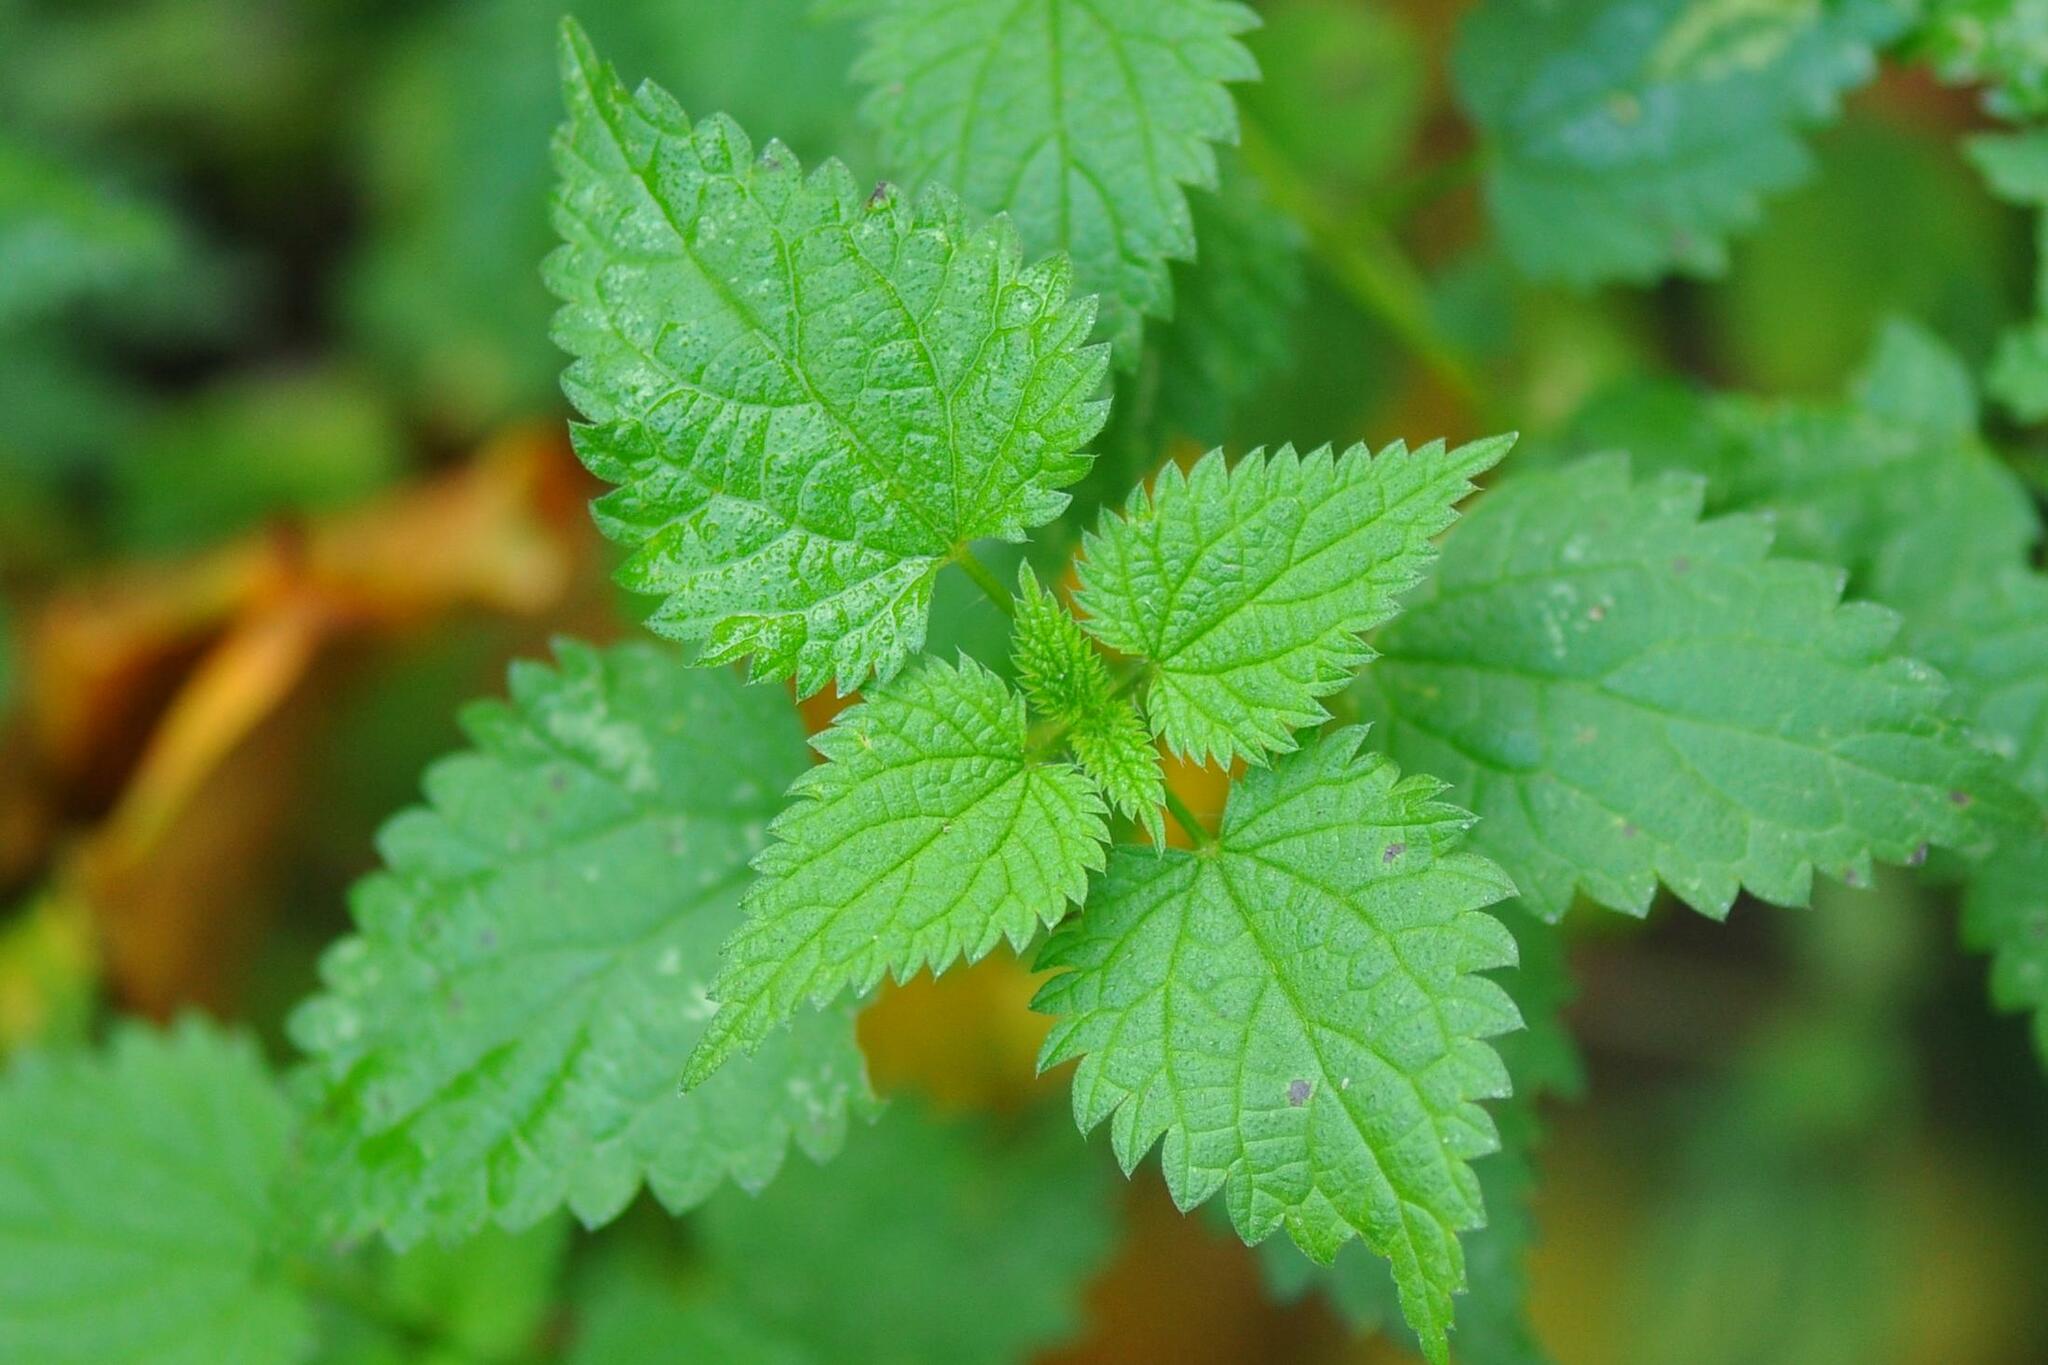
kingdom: Plantae
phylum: Tracheophyta
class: Magnoliopsida
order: Rosales
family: Urticaceae
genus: Urtica
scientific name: Urtica dioica
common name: Common nettle
